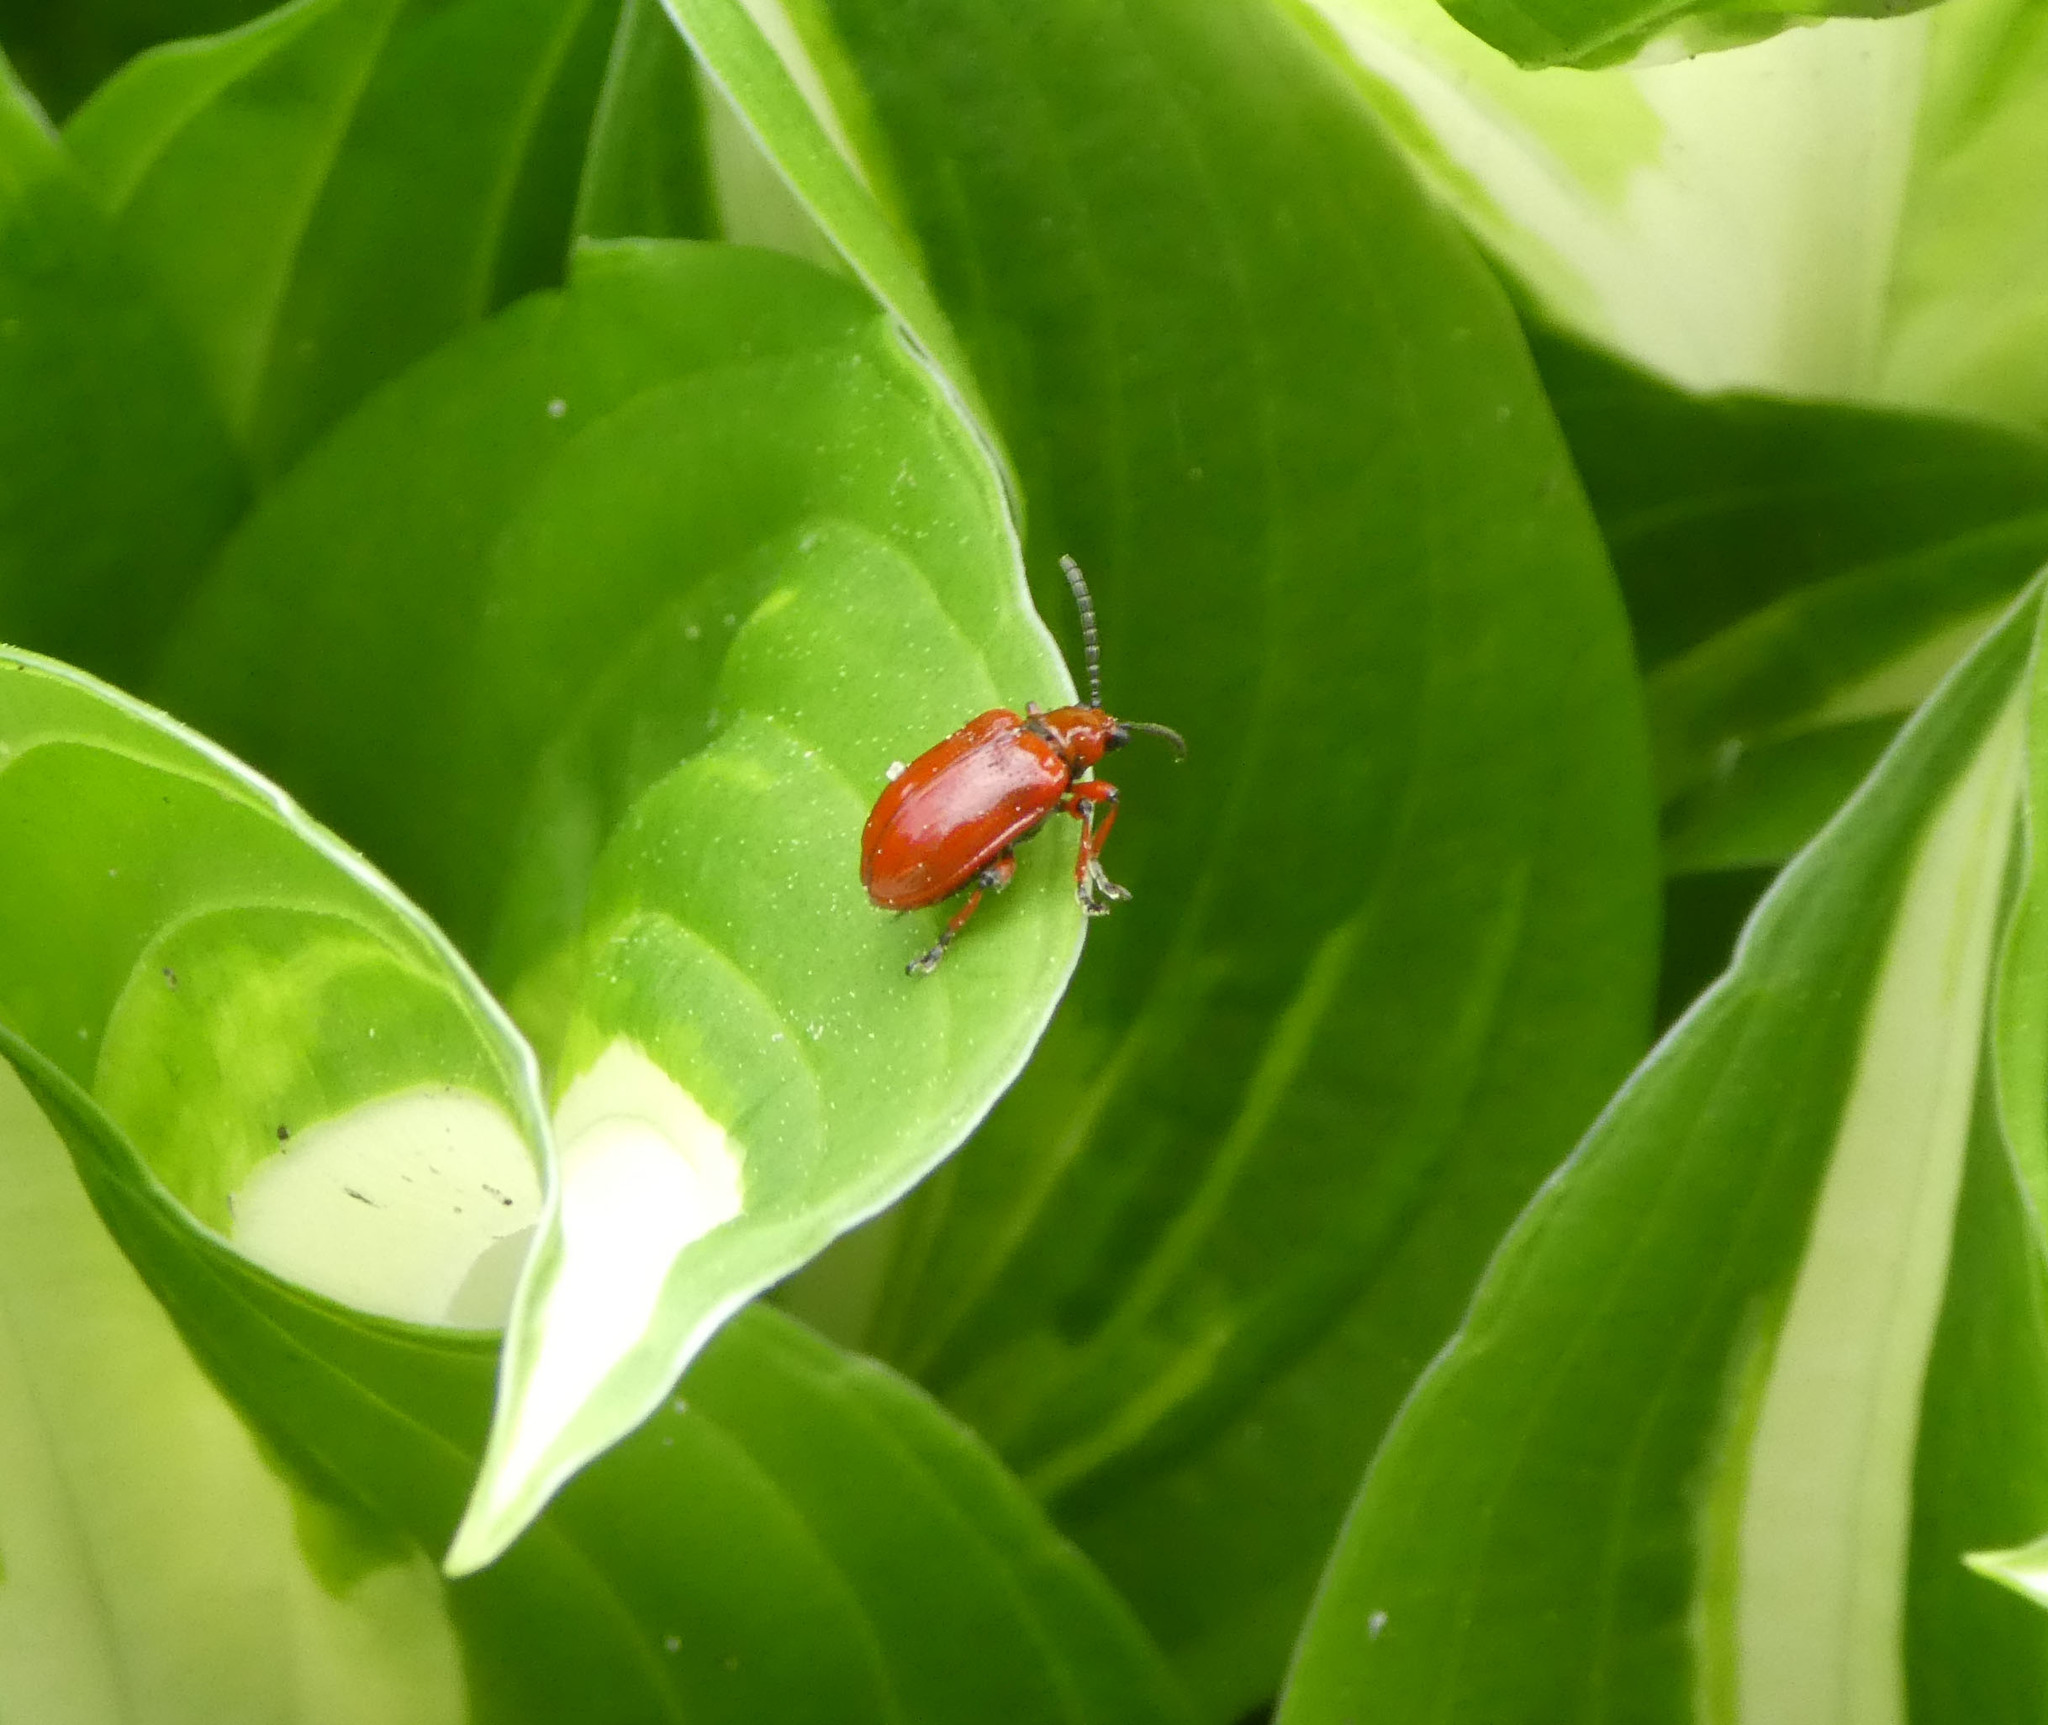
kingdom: Animalia
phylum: Arthropoda
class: Insecta
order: Coleoptera
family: Chrysomelidae
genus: Lilioceris
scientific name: Lilioceris merdigera
